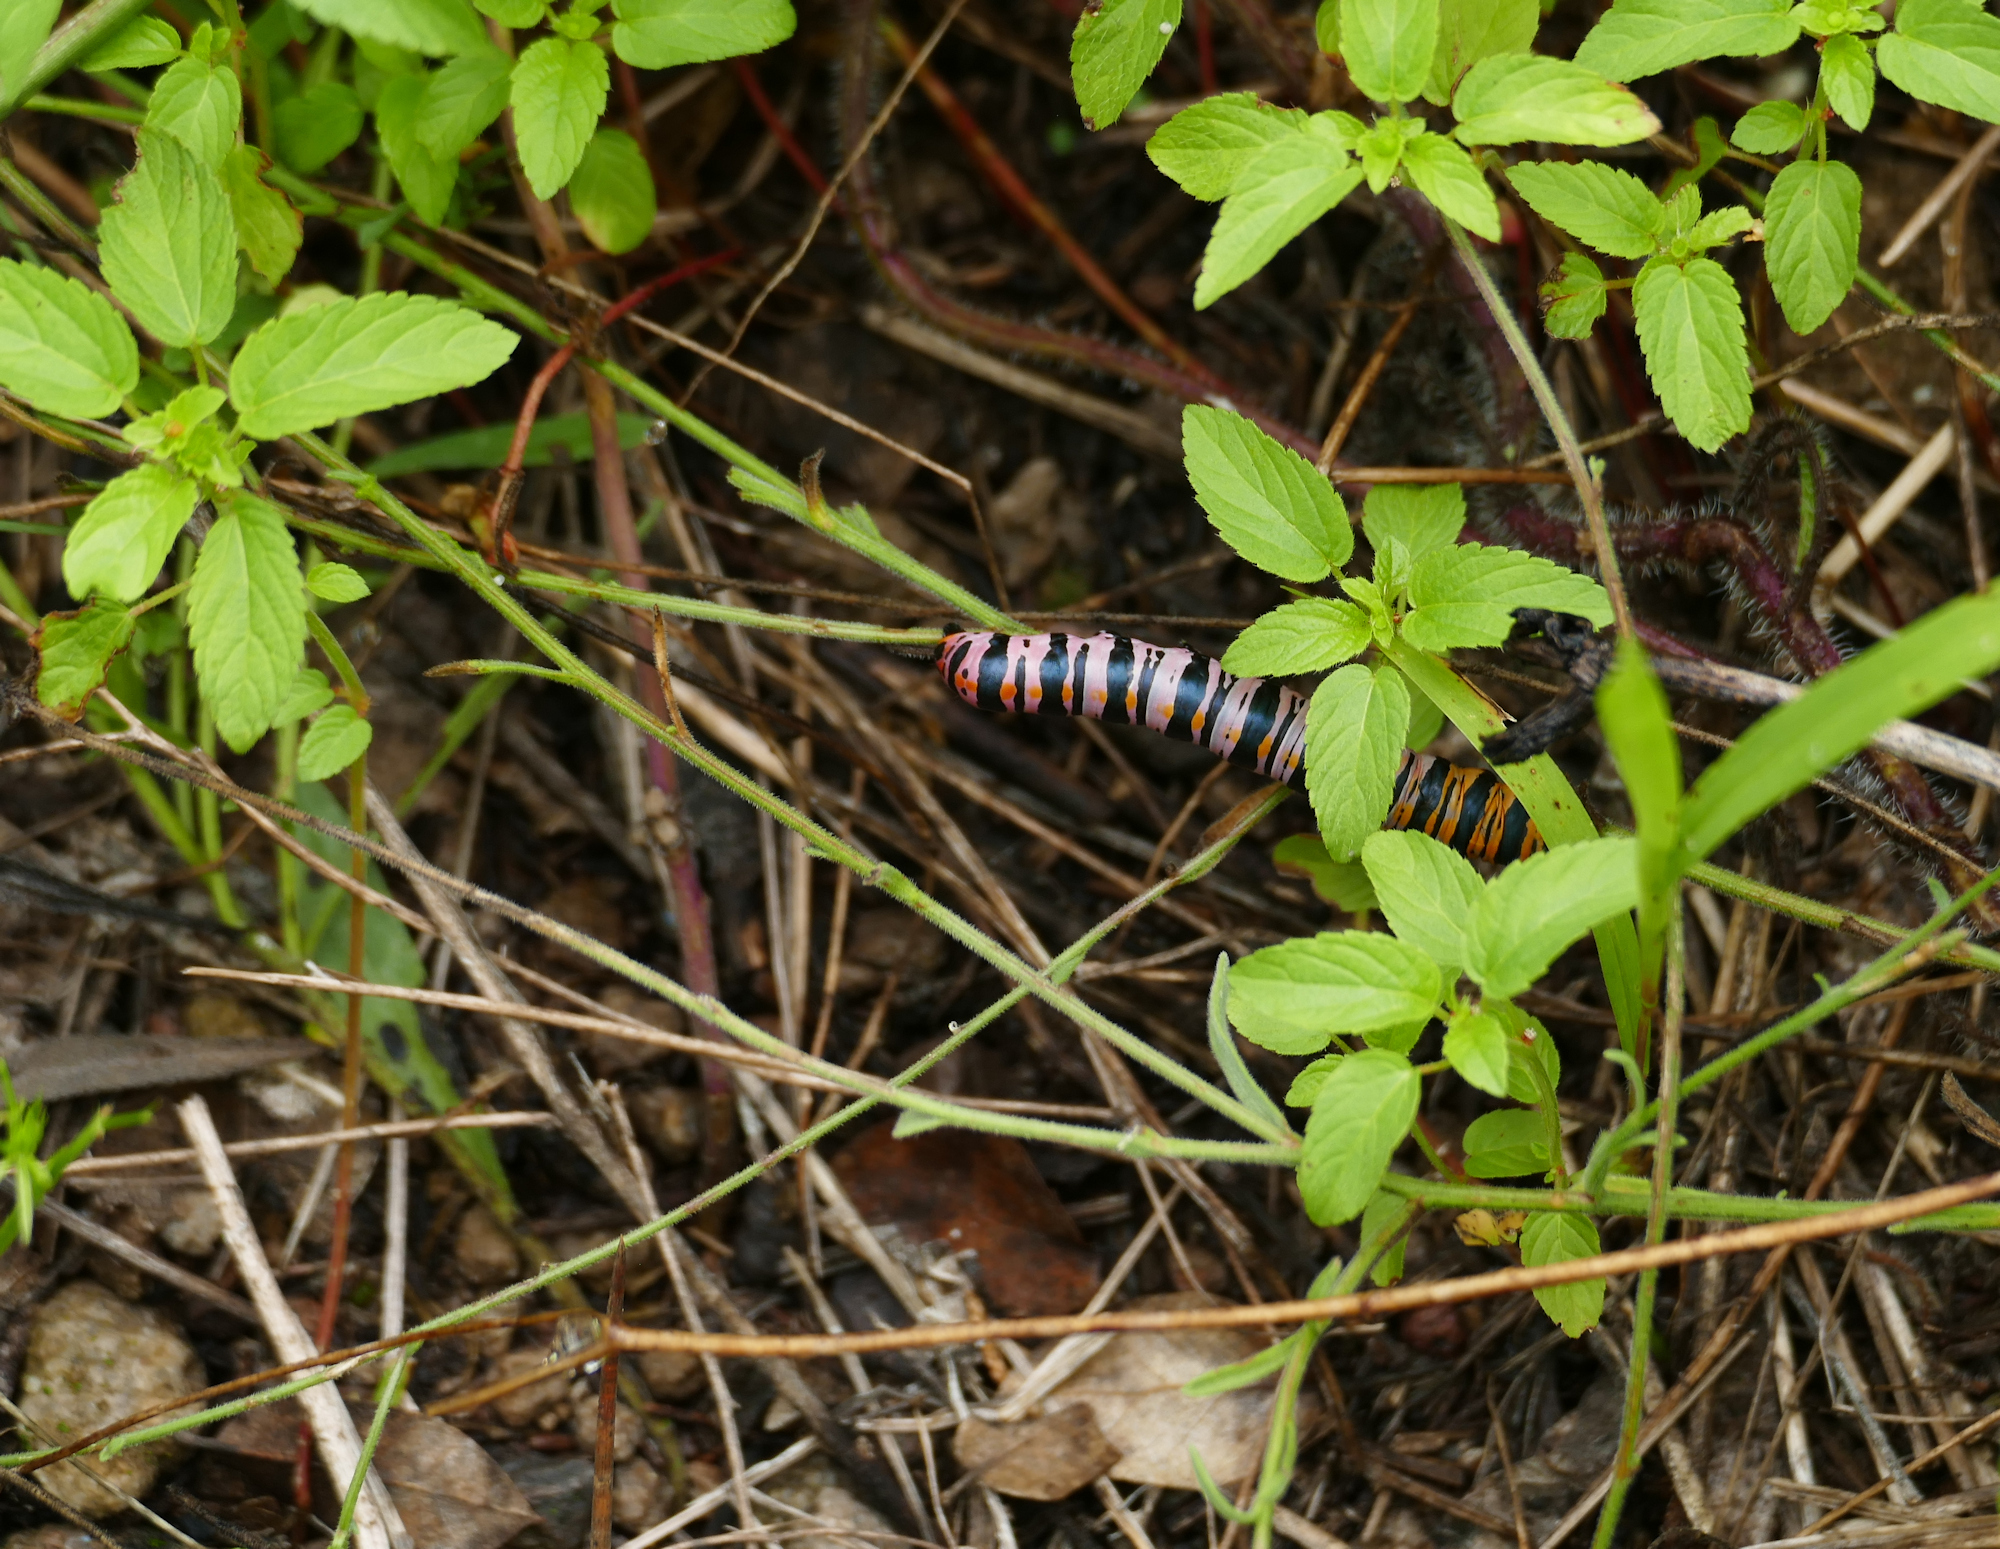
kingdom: Animalia
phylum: Arthropoda
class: Insecta
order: Lepidoptera
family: Noctuidae
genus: Cucullia
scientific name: Cucullia lilacina
